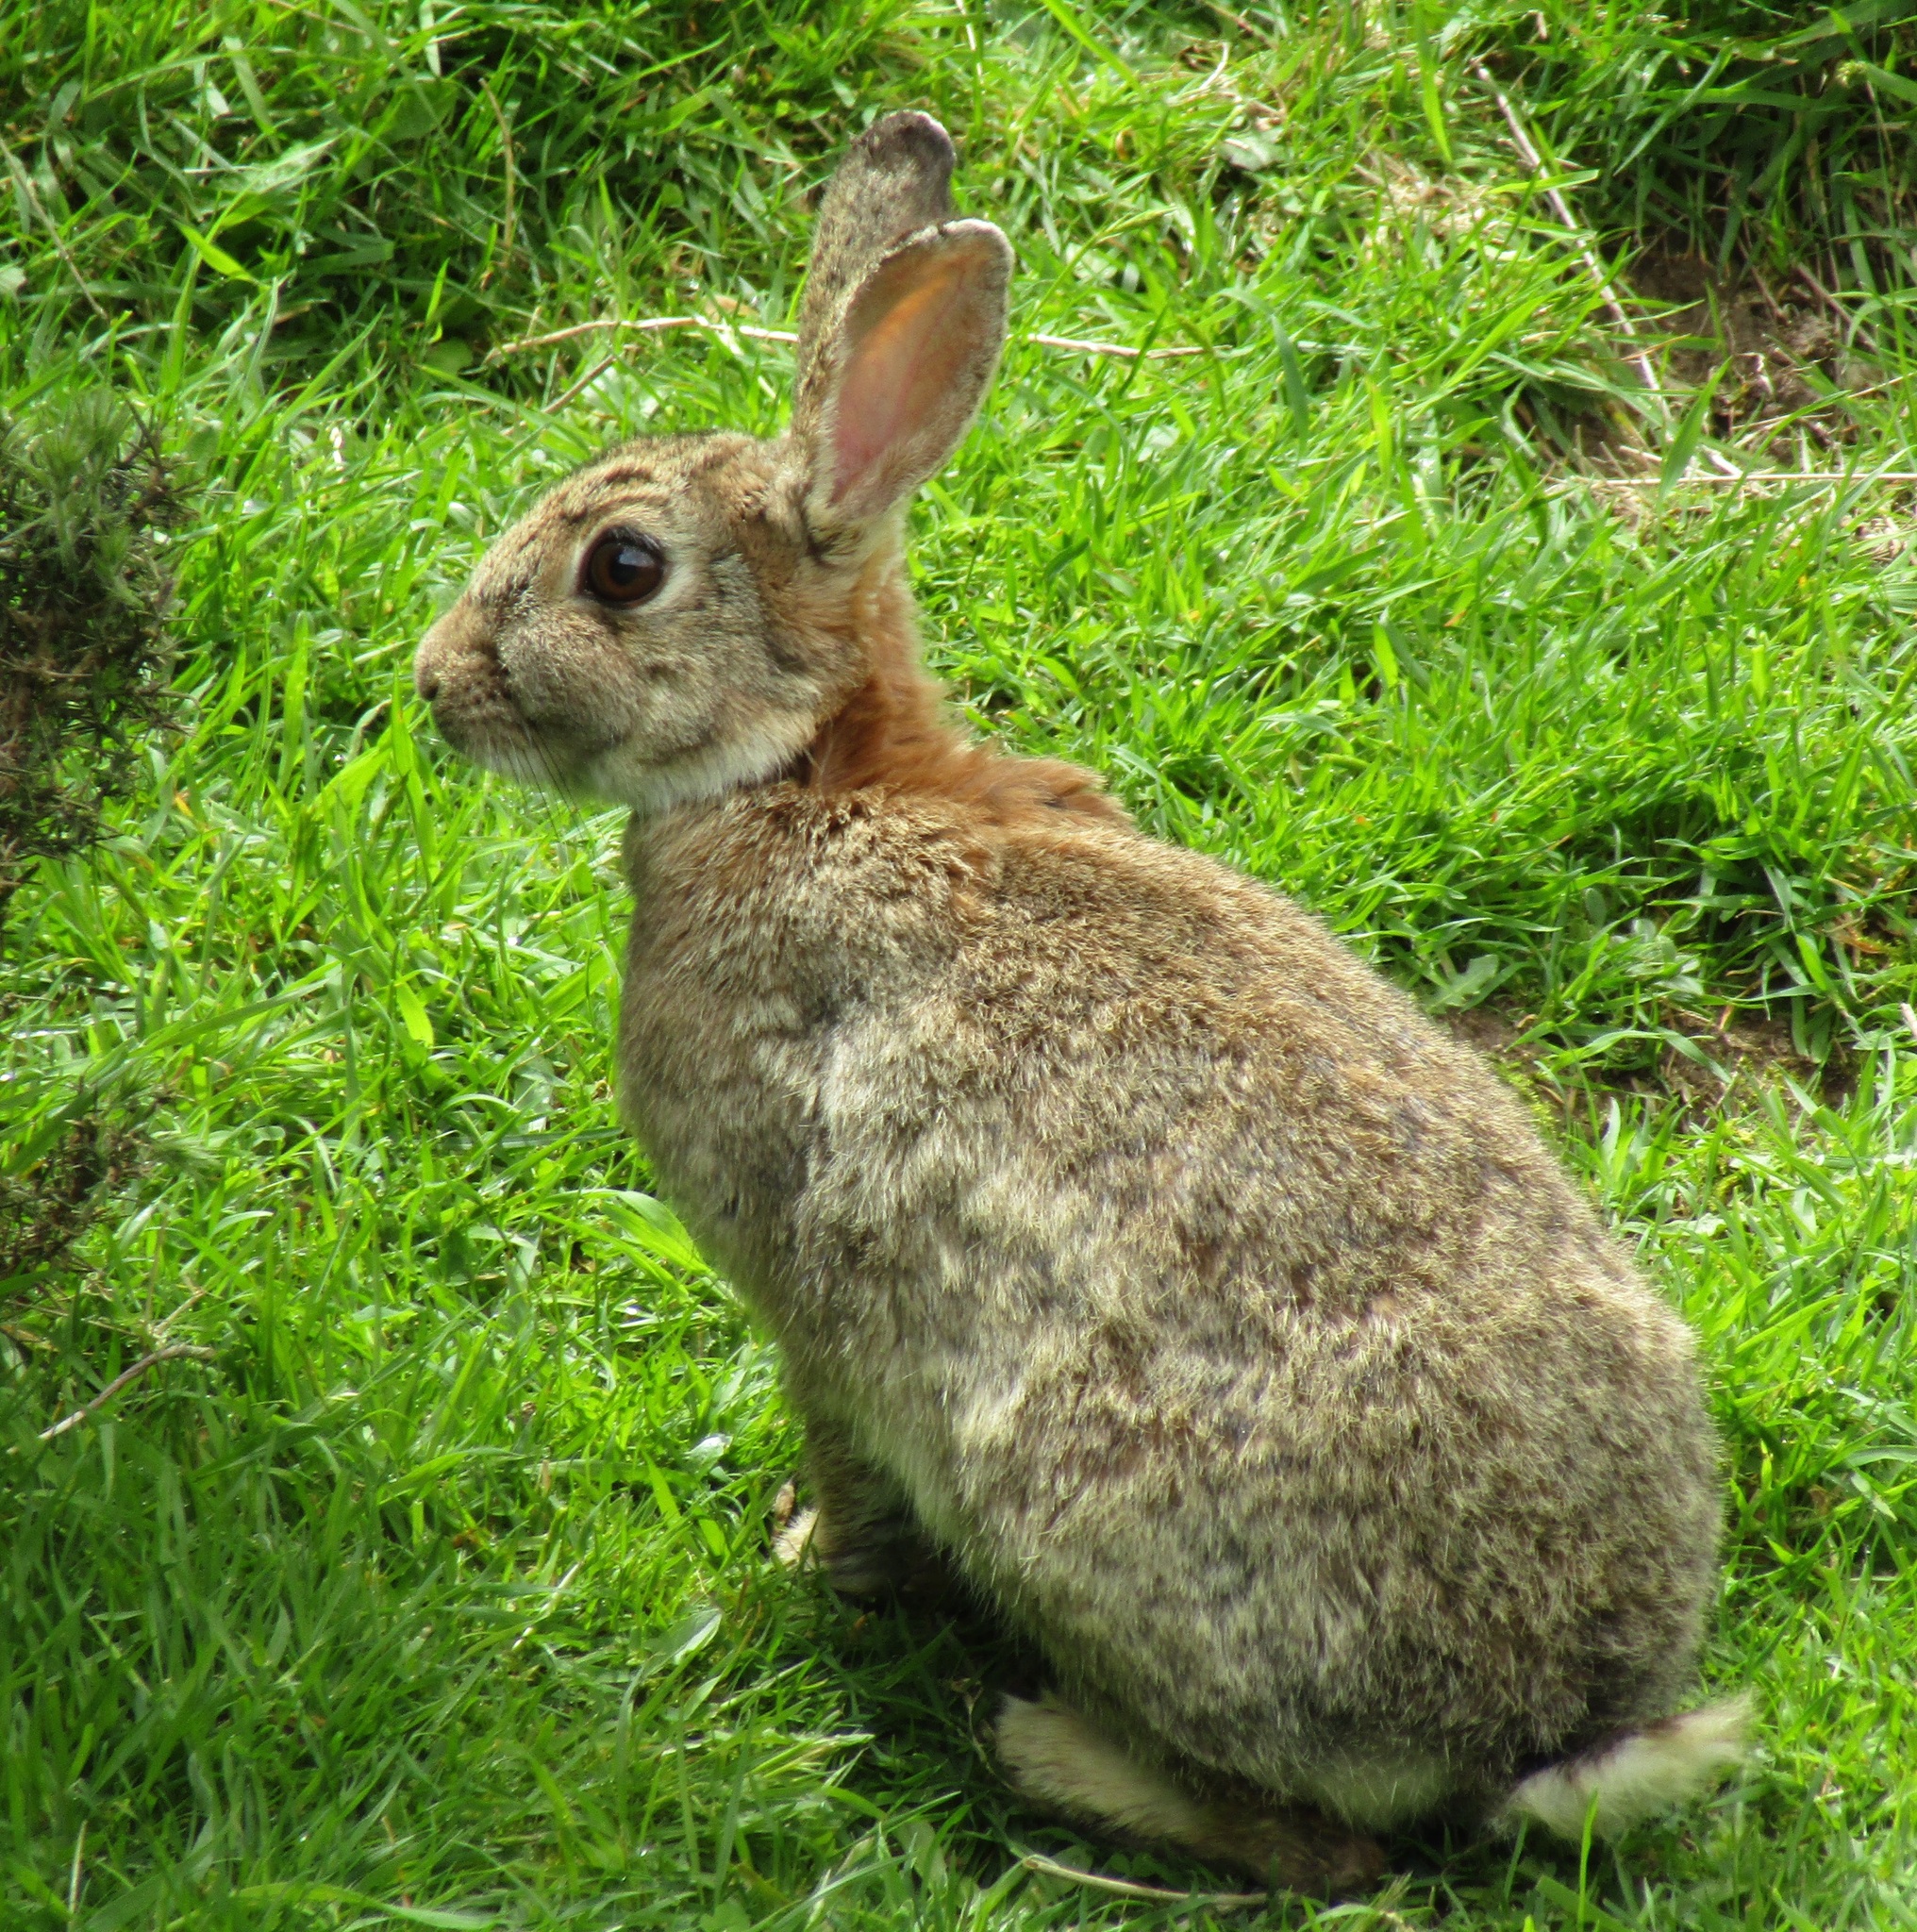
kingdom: Animalia
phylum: Chordata
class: Mammalia
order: Lagomorpha
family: Leporidae
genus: Oryctolagus
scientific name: Oryctolagus cuniculus
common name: European rabbit
